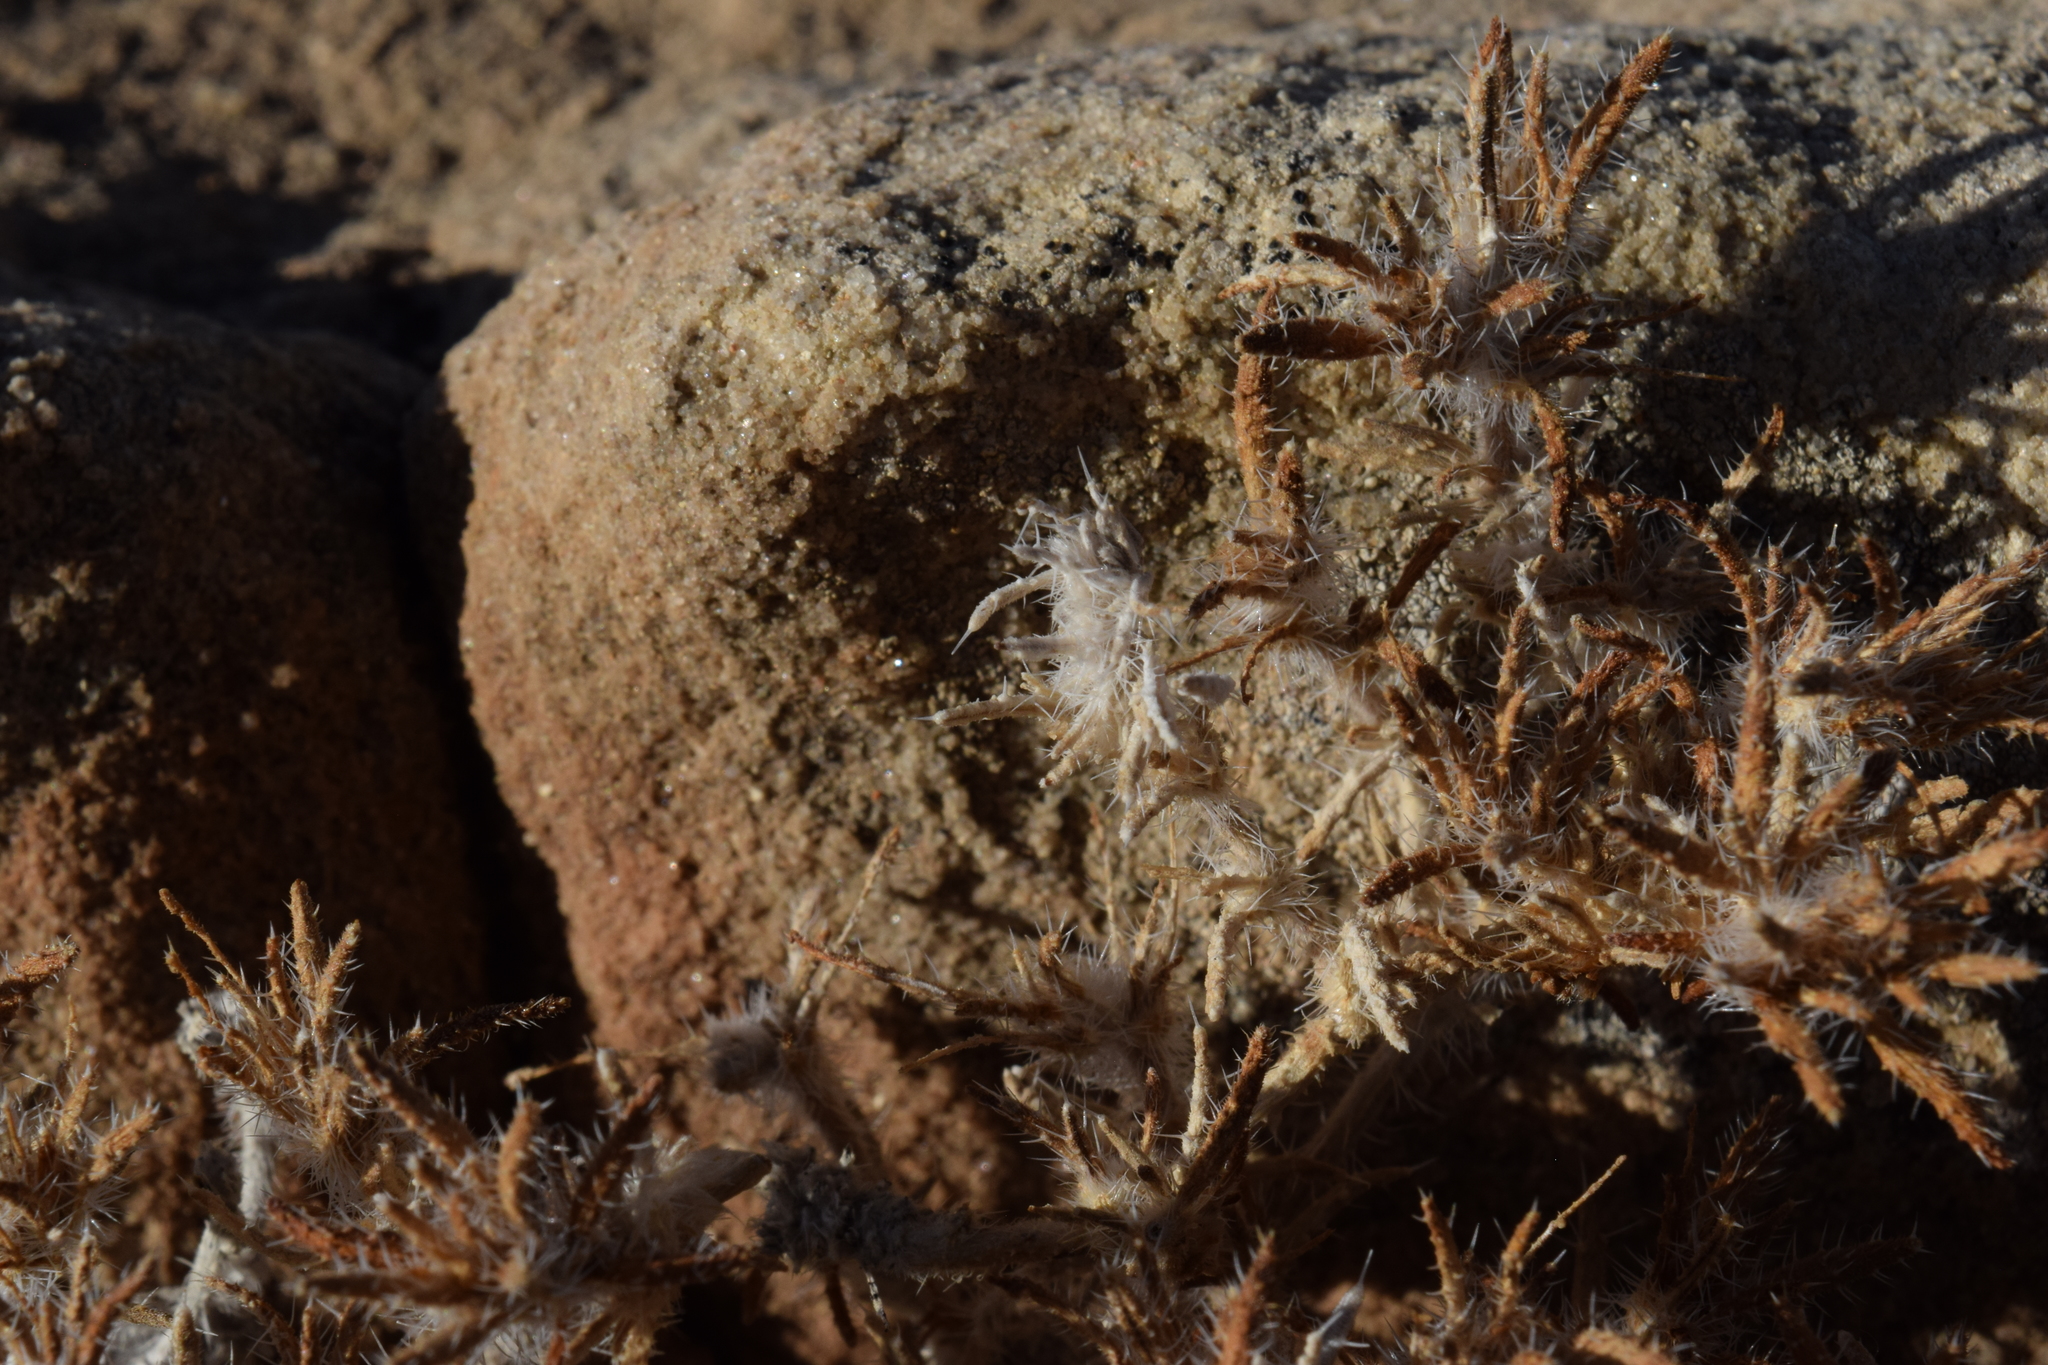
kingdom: Plantae
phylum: Tracheophyta
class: Magnoliopsida
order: Boraginales
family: Ehretiaceae
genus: Tiquilia
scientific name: Tiquilia latior
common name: Matted tiquilia
